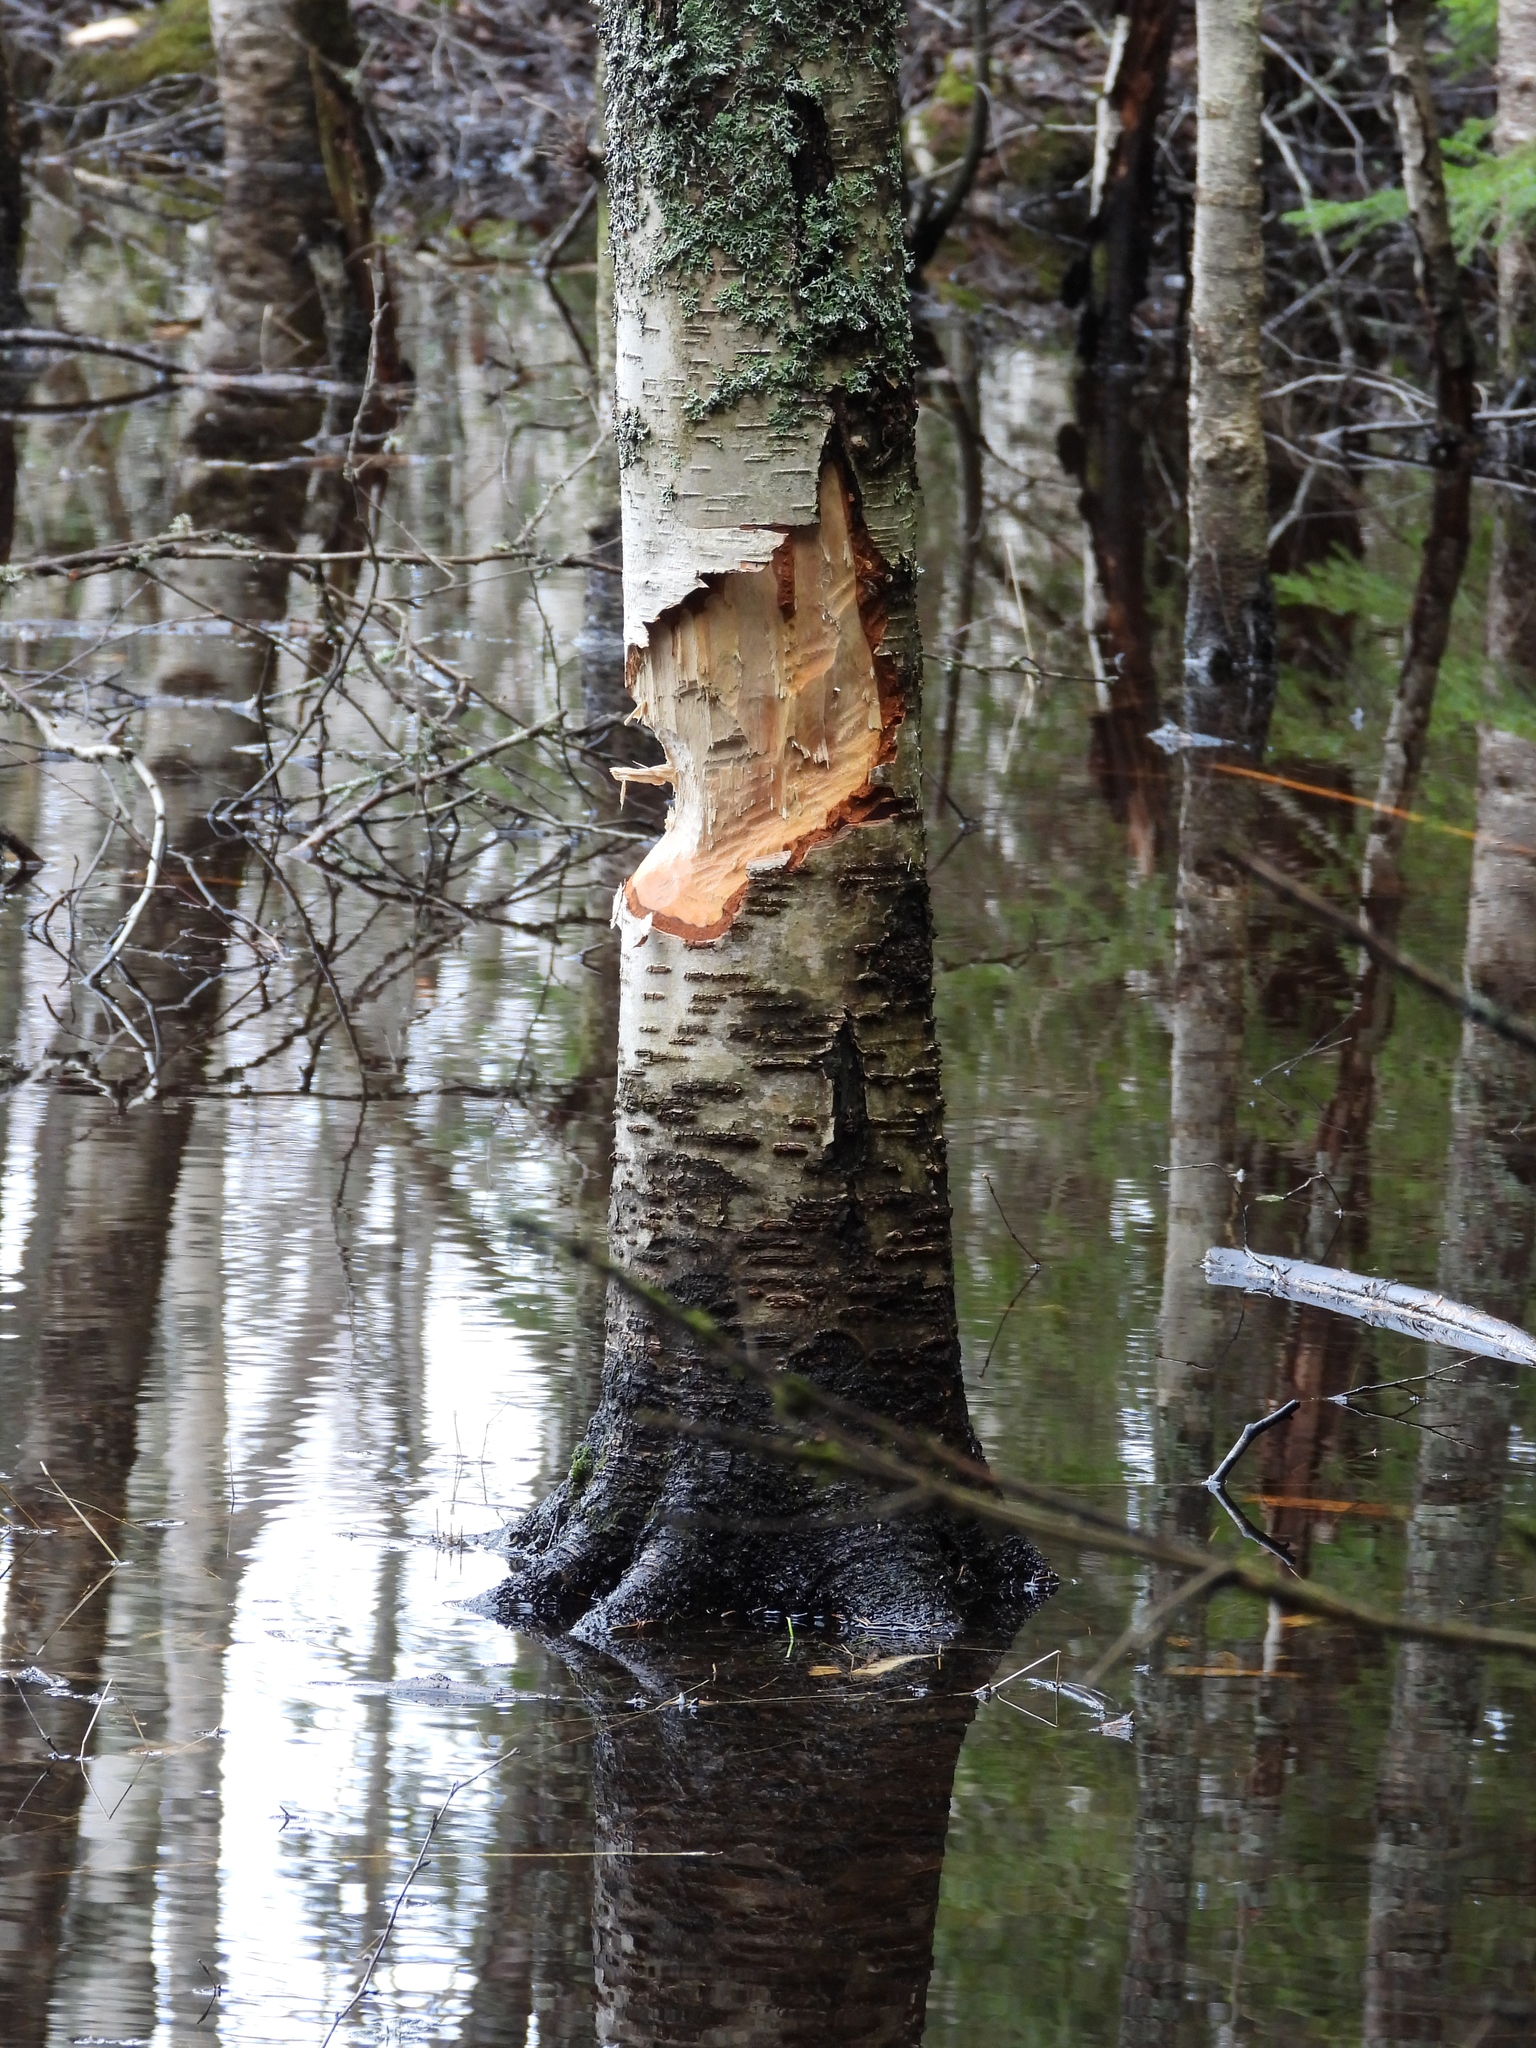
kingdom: Animalia
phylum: Chordata
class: Mammalia
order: Rodentia
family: Castoridae
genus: Castor
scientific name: Castor fiber
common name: Eurasian beaver
